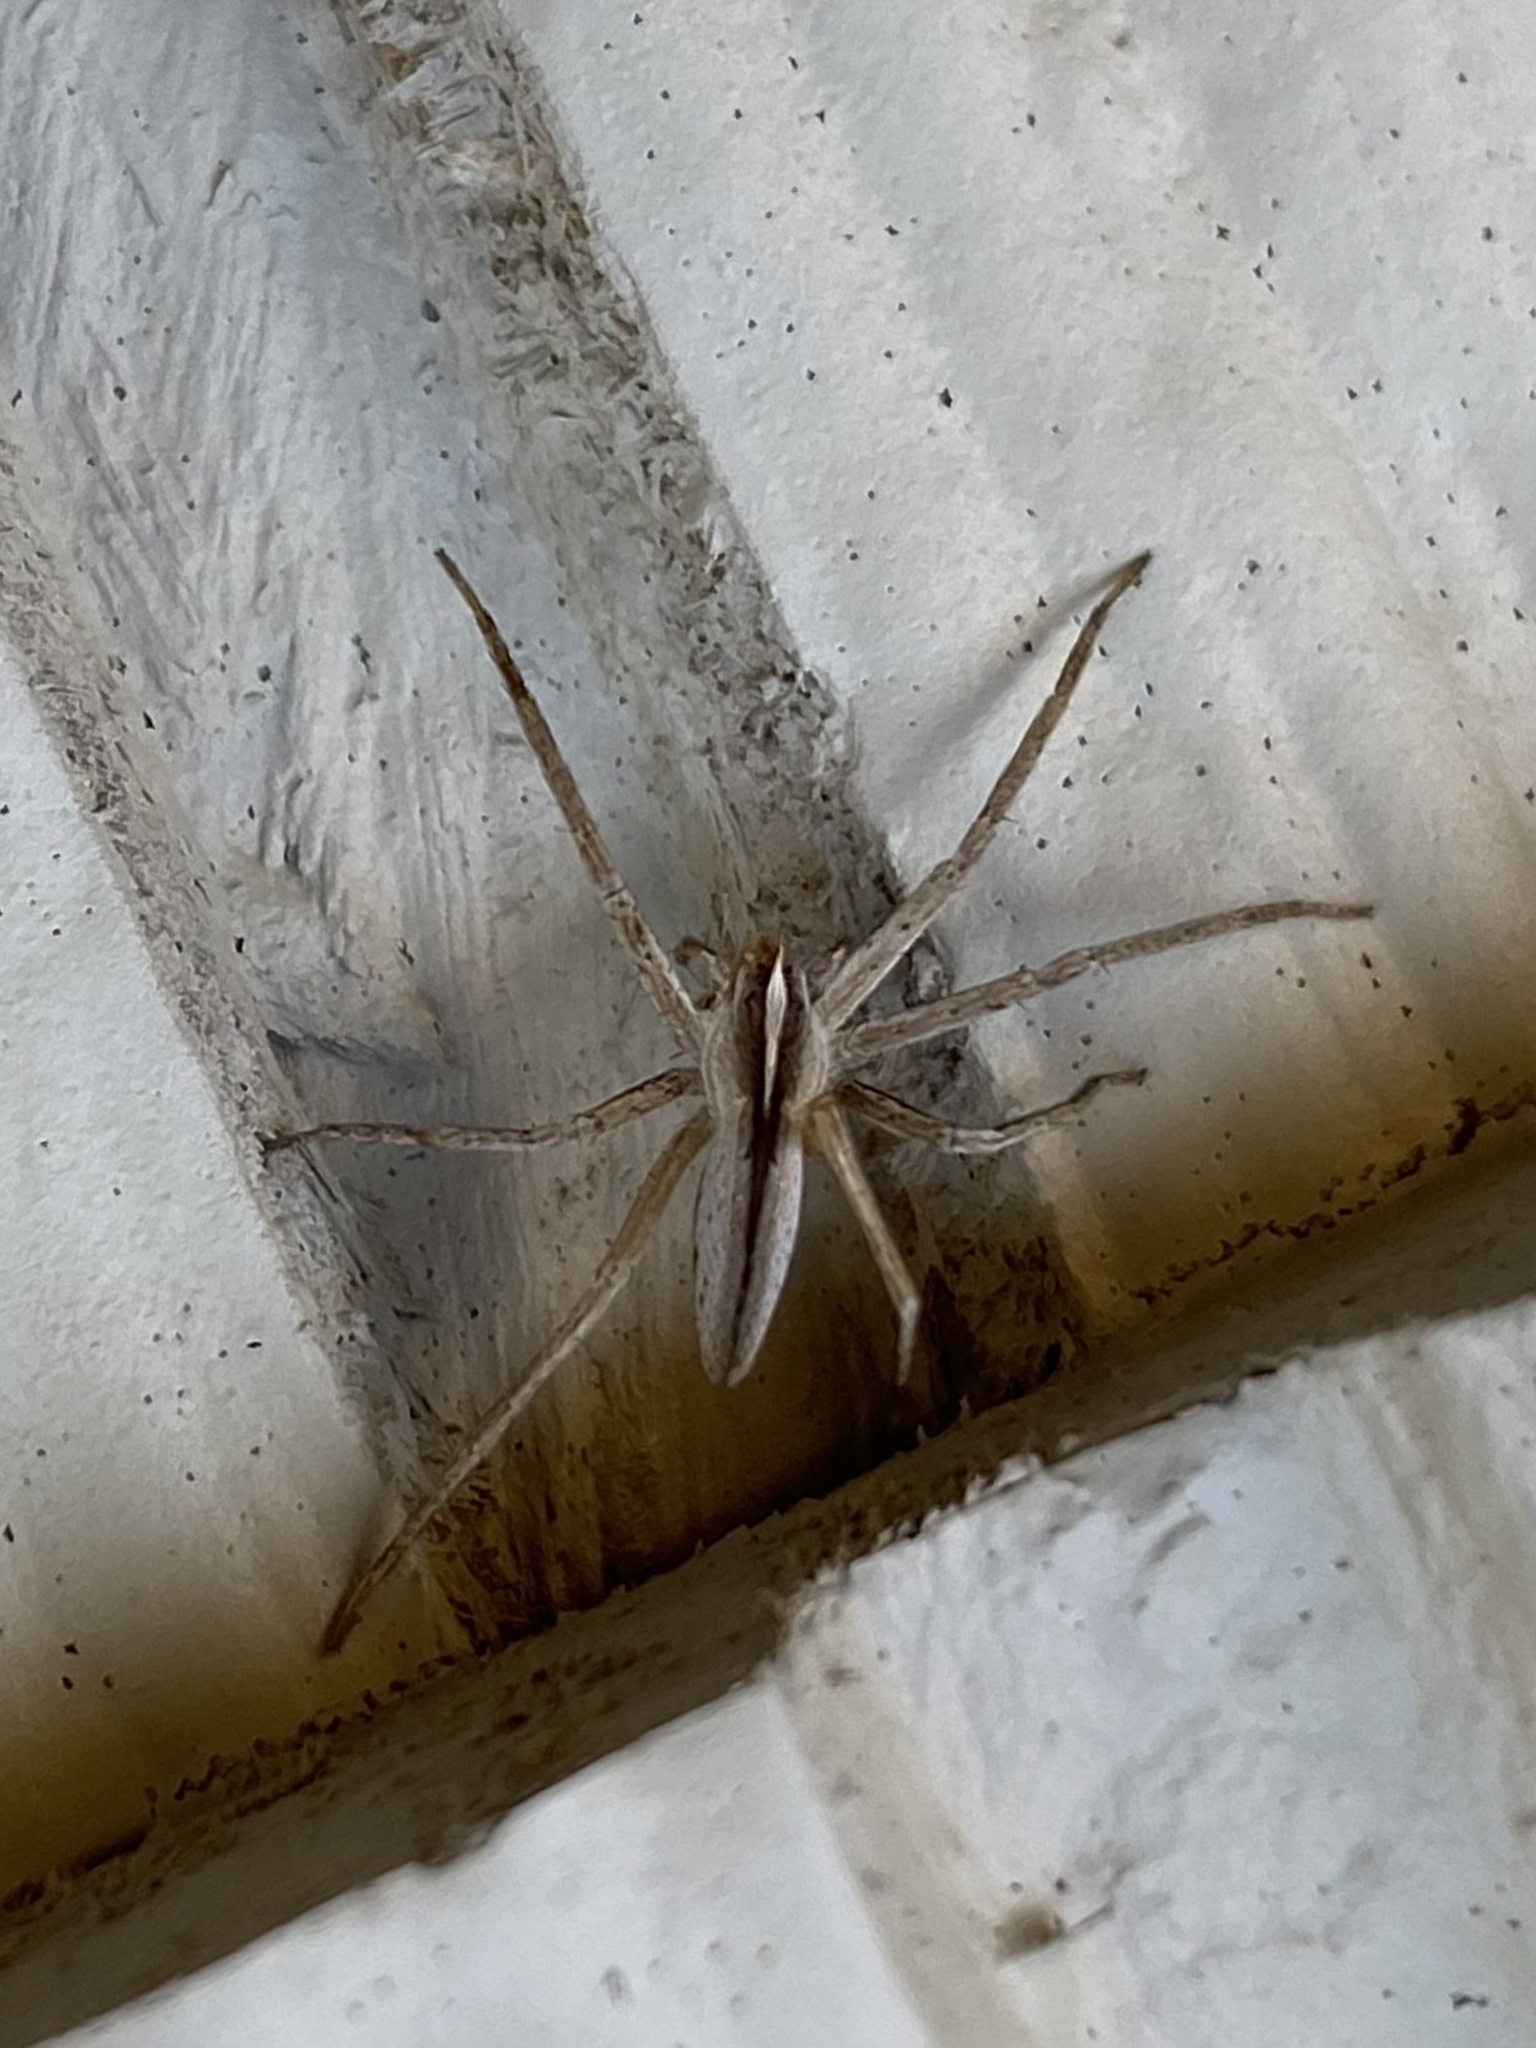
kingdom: Animalia
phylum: Arthropoda
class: Arachnida
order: Araneae
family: Pisauridae
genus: Pisaurina
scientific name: Pisaurina dubia
